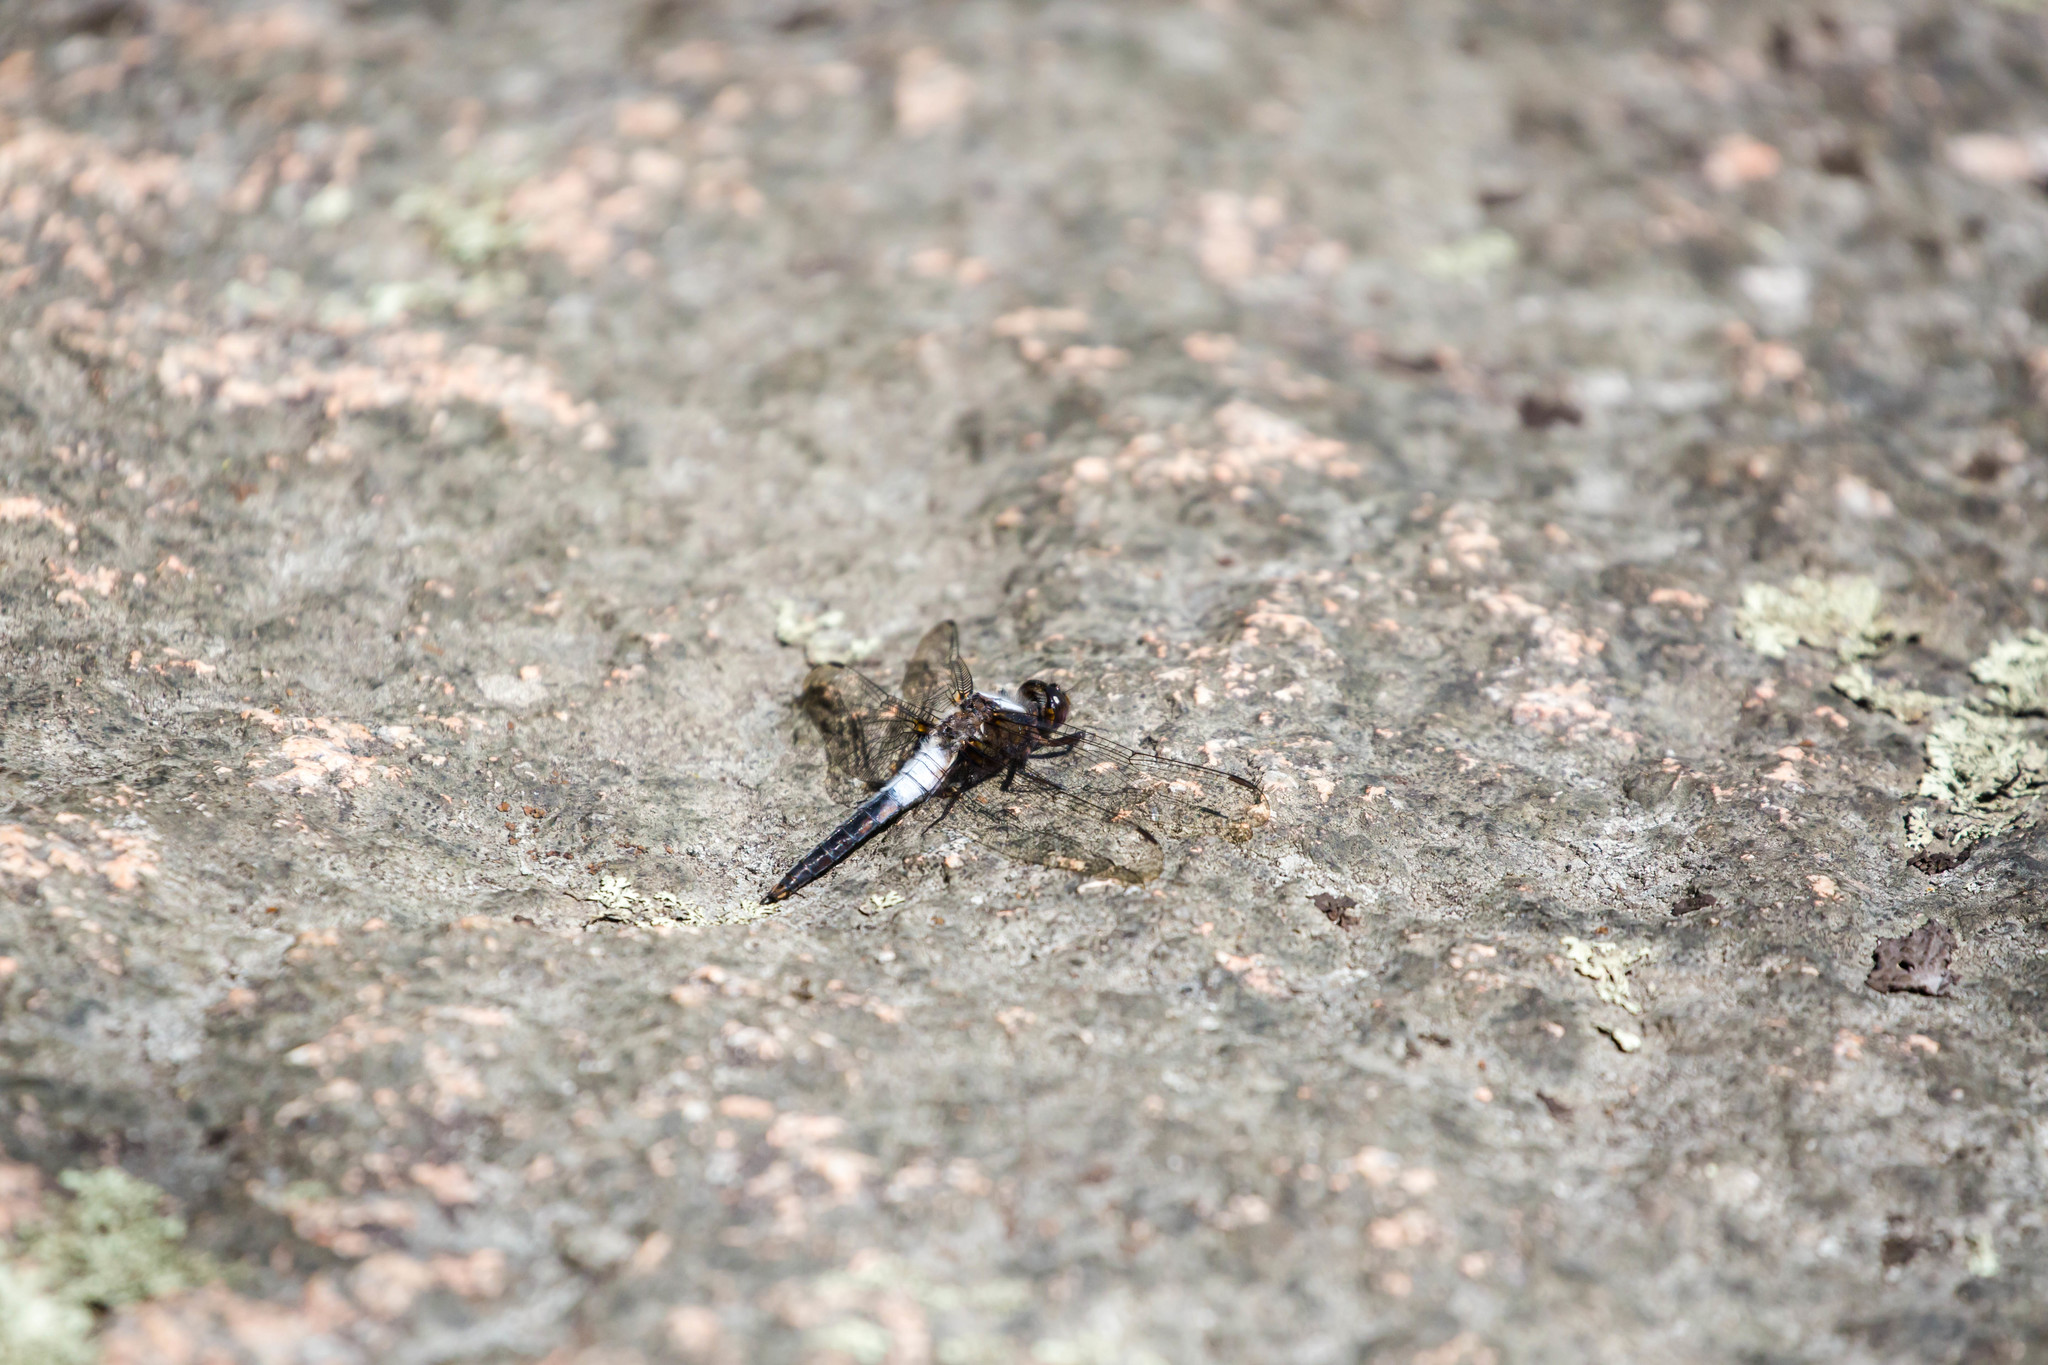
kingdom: Animalia
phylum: Arthropoda
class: Insecta
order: Odonata
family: Libellulidae
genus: Ladona
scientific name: Ladona julia
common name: Chalk-fronted corporal
